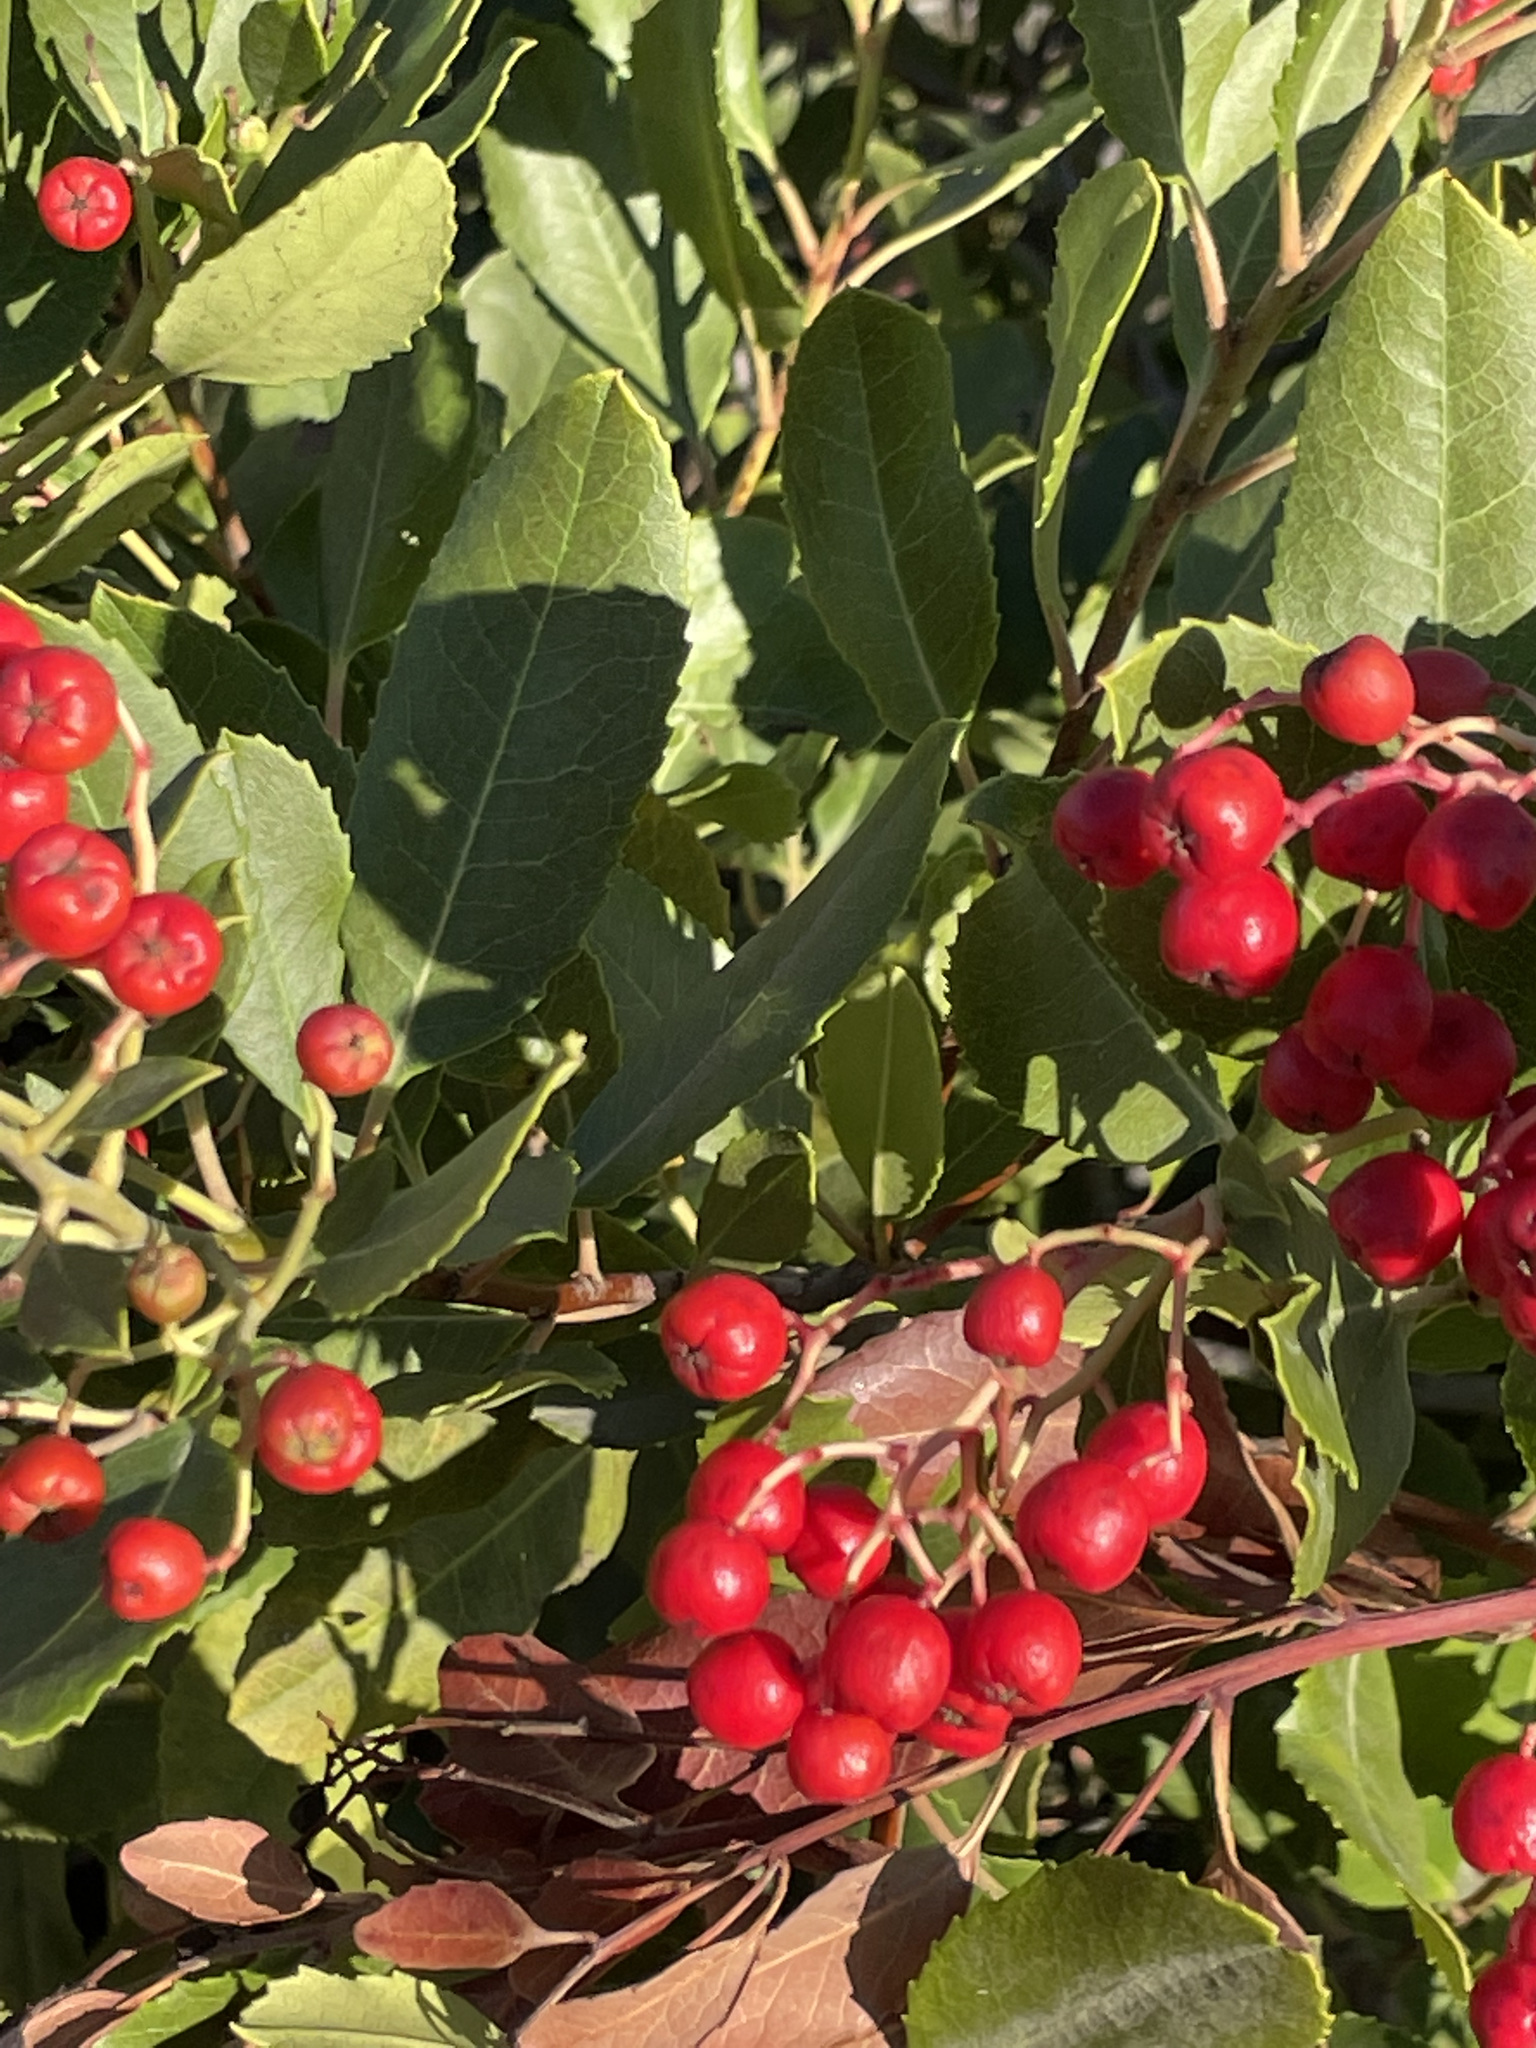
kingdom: Plantae
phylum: Tracheophyta
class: Magnoliopsida
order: Rosales
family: Rosaceae
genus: Heteromeles
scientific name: Heteromeles arbutifolia
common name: California-holly
